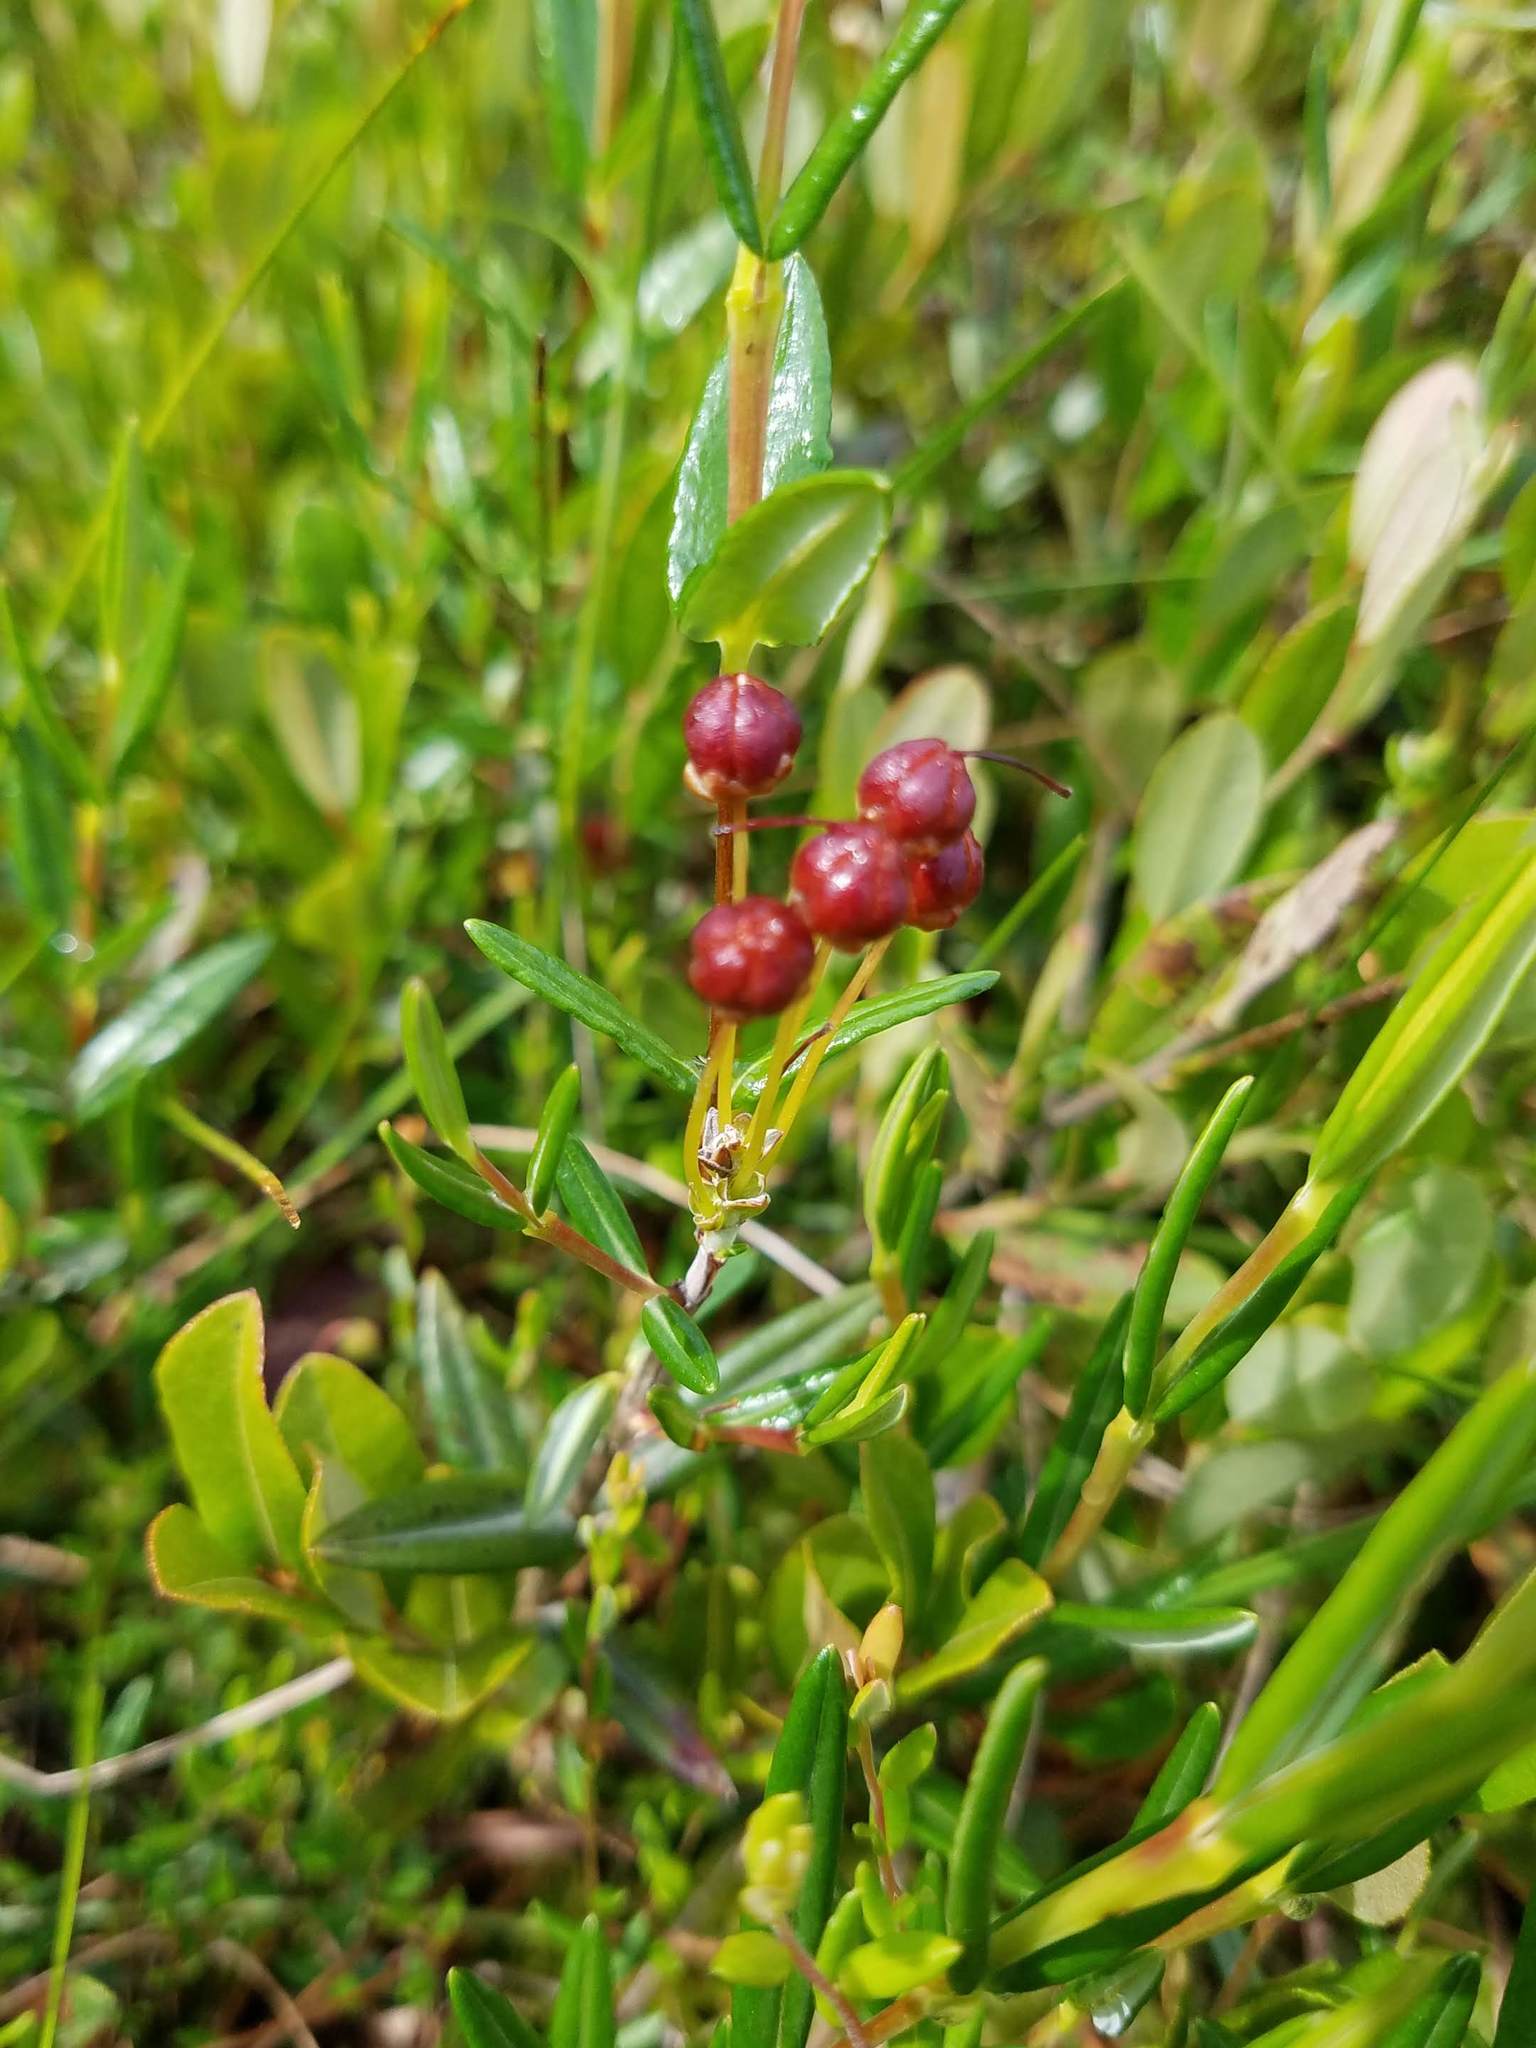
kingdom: Plantae
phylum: Tracheophyta
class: Magnoliopsida
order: Ericales
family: Ericaceae
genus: Kalmia
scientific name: Kalmia polifolia
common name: Bog-laurel
